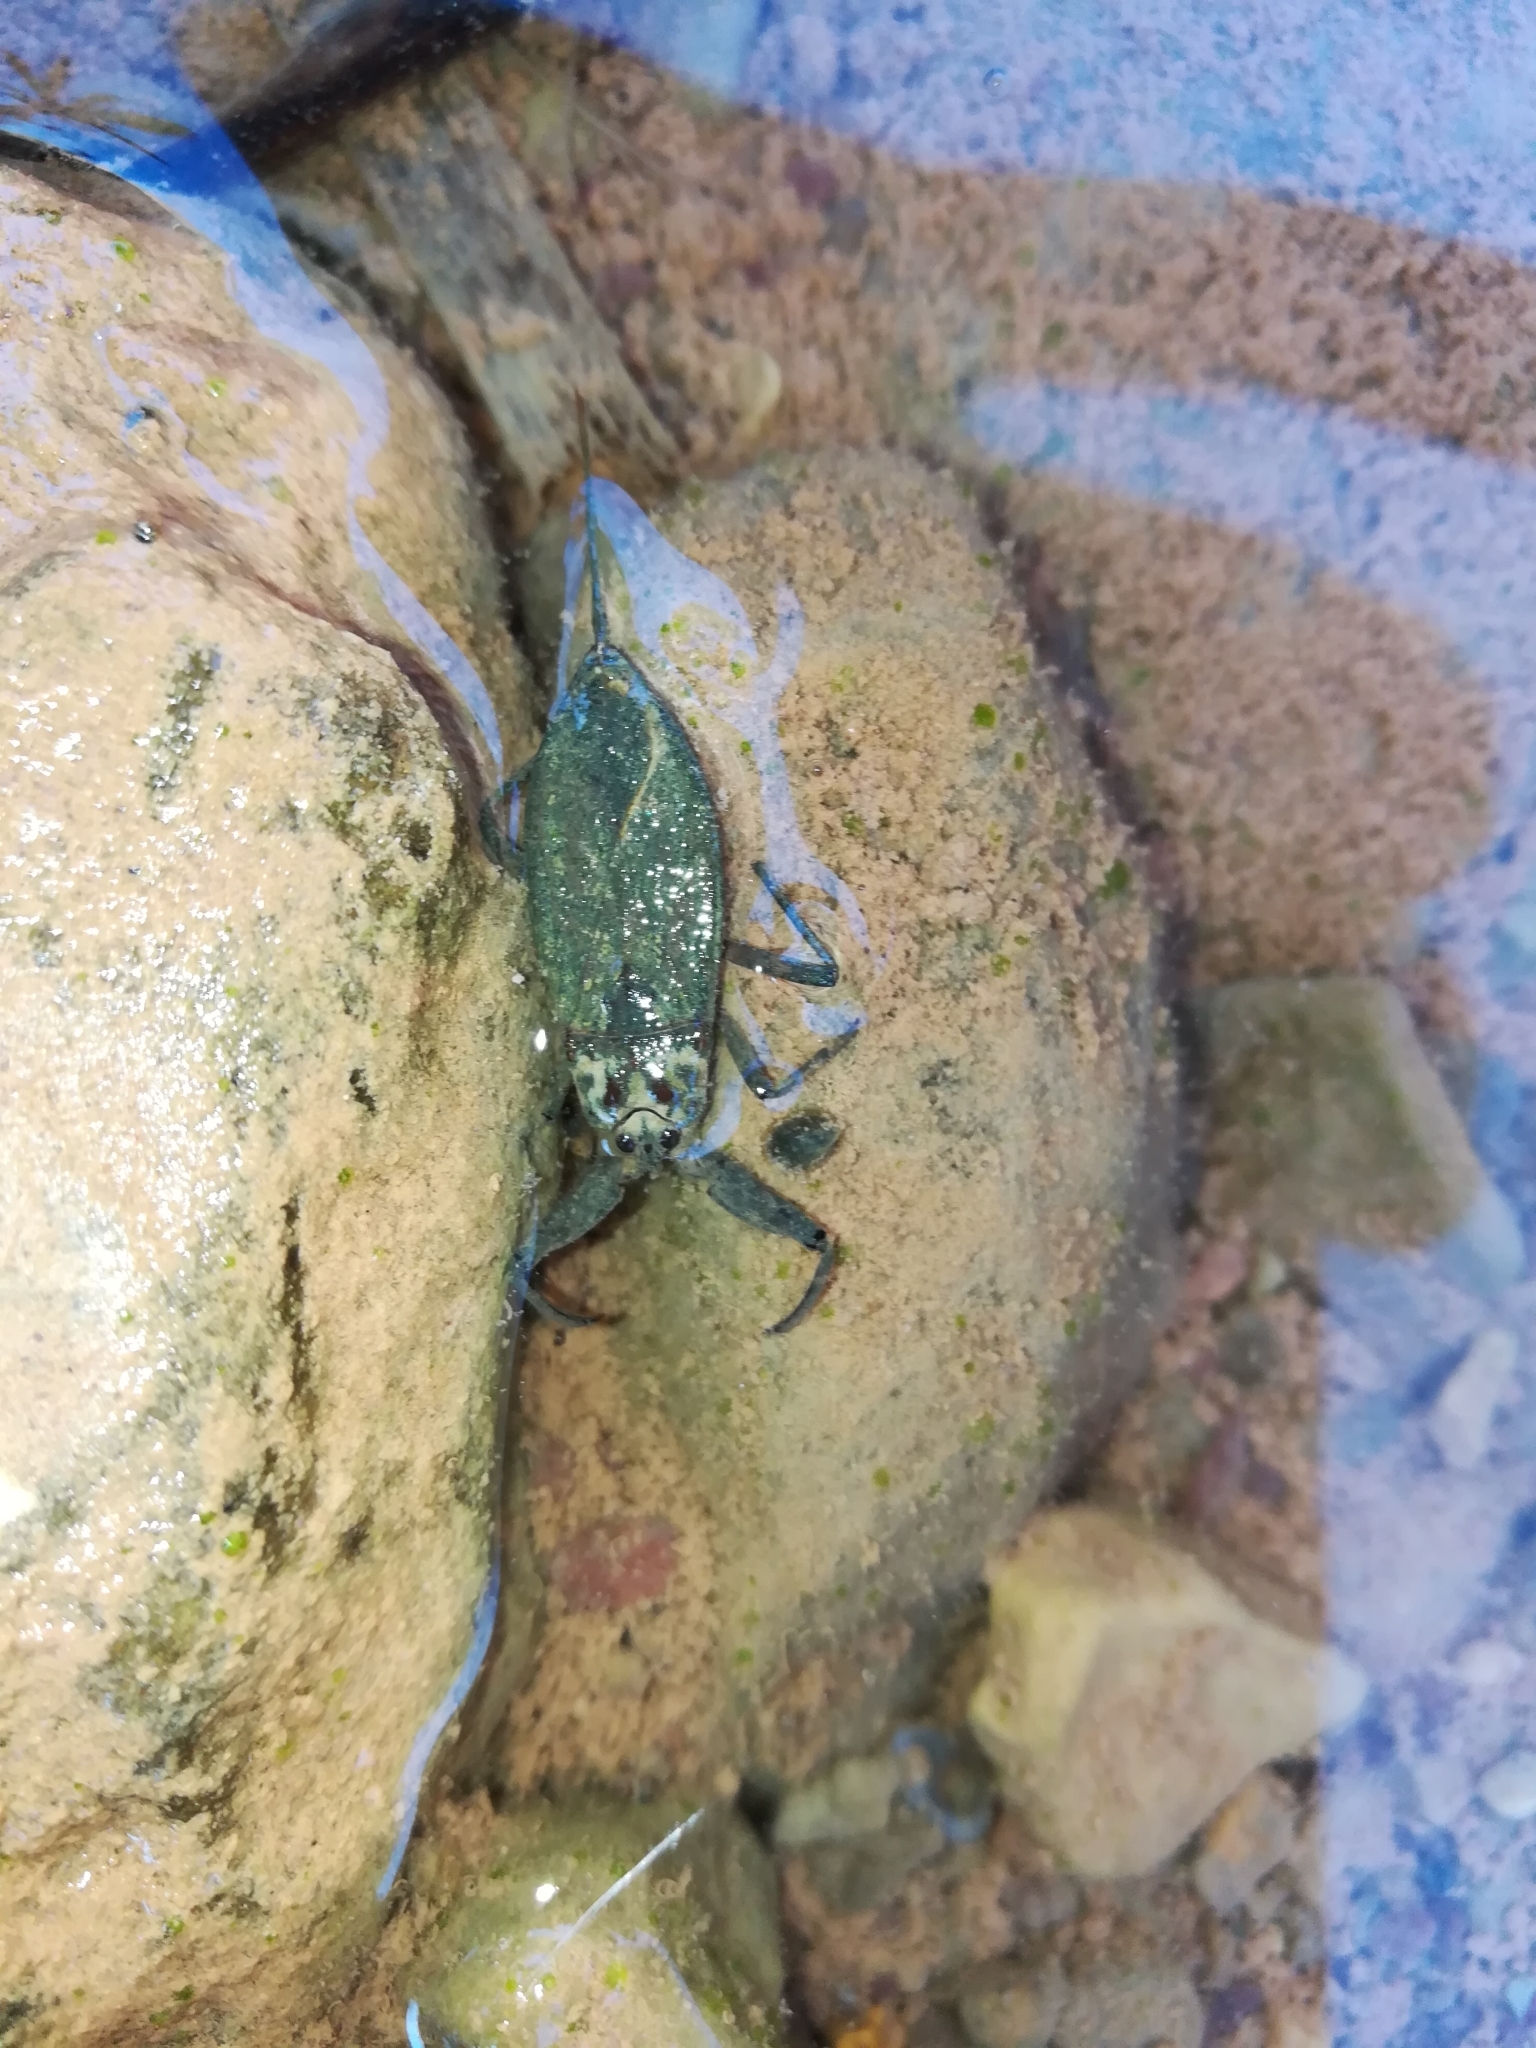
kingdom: Animalia
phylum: Arthropoda
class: Insecta
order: Hemiptera
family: Nepidae
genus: Nepa
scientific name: Nepa cinerea
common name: Water scorpion
